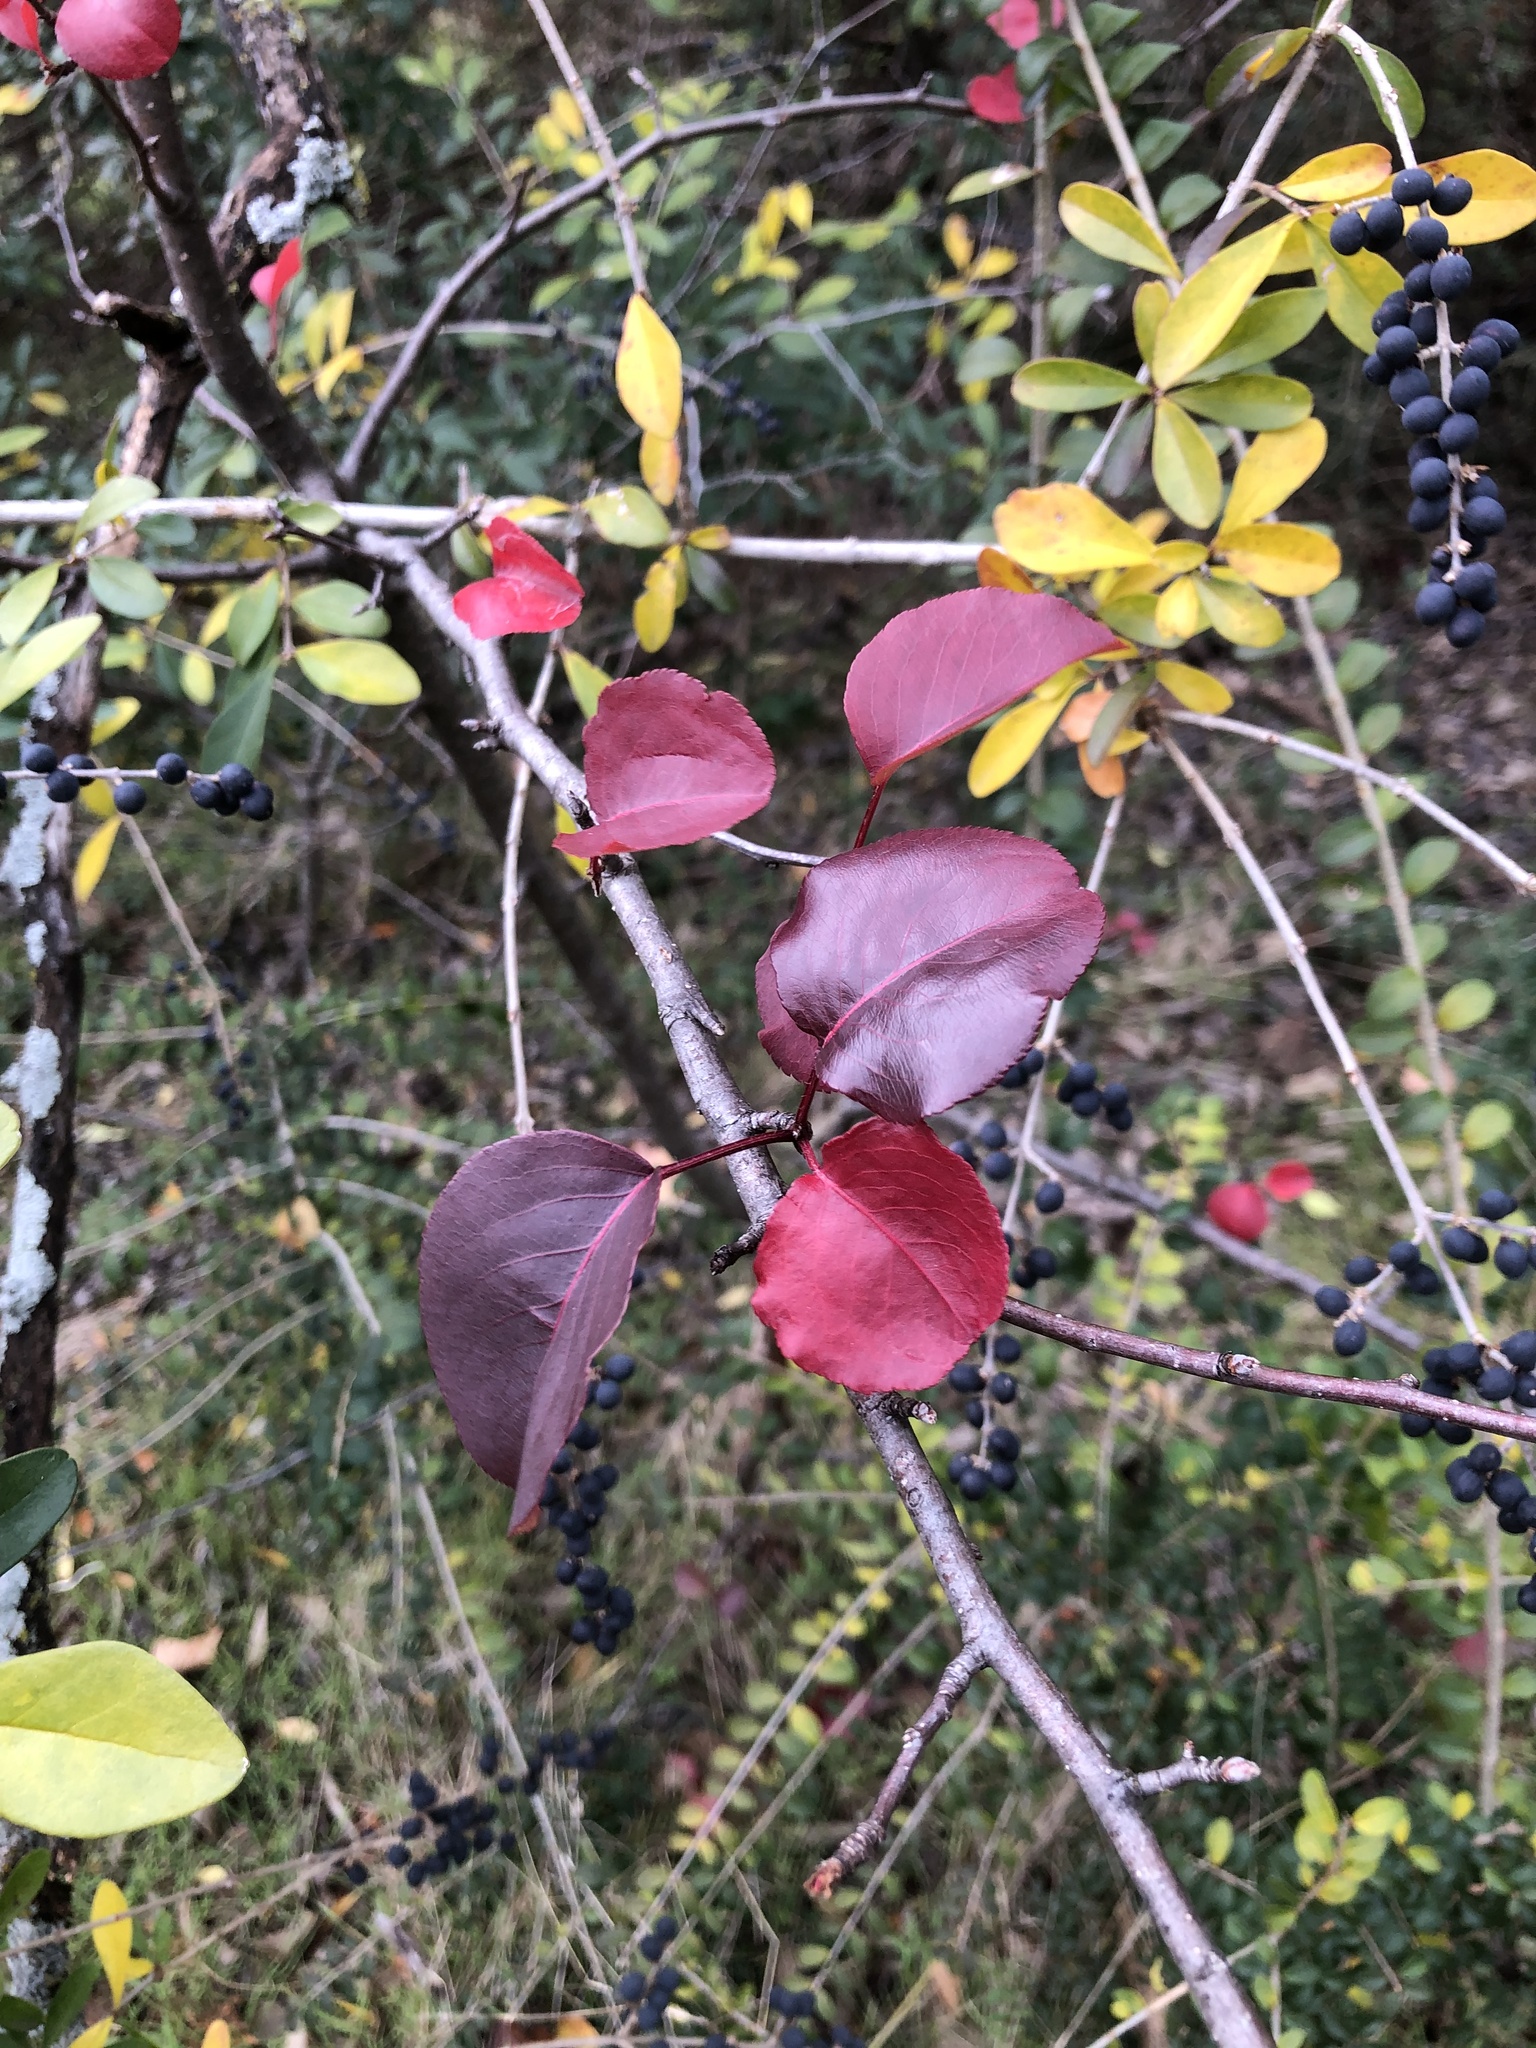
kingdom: Plantae
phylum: Tracheophyta
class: Magnoliopsida
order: Rosales
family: Rosaceae
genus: Pyrus
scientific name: Pyrus calleryana
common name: Callery pear
